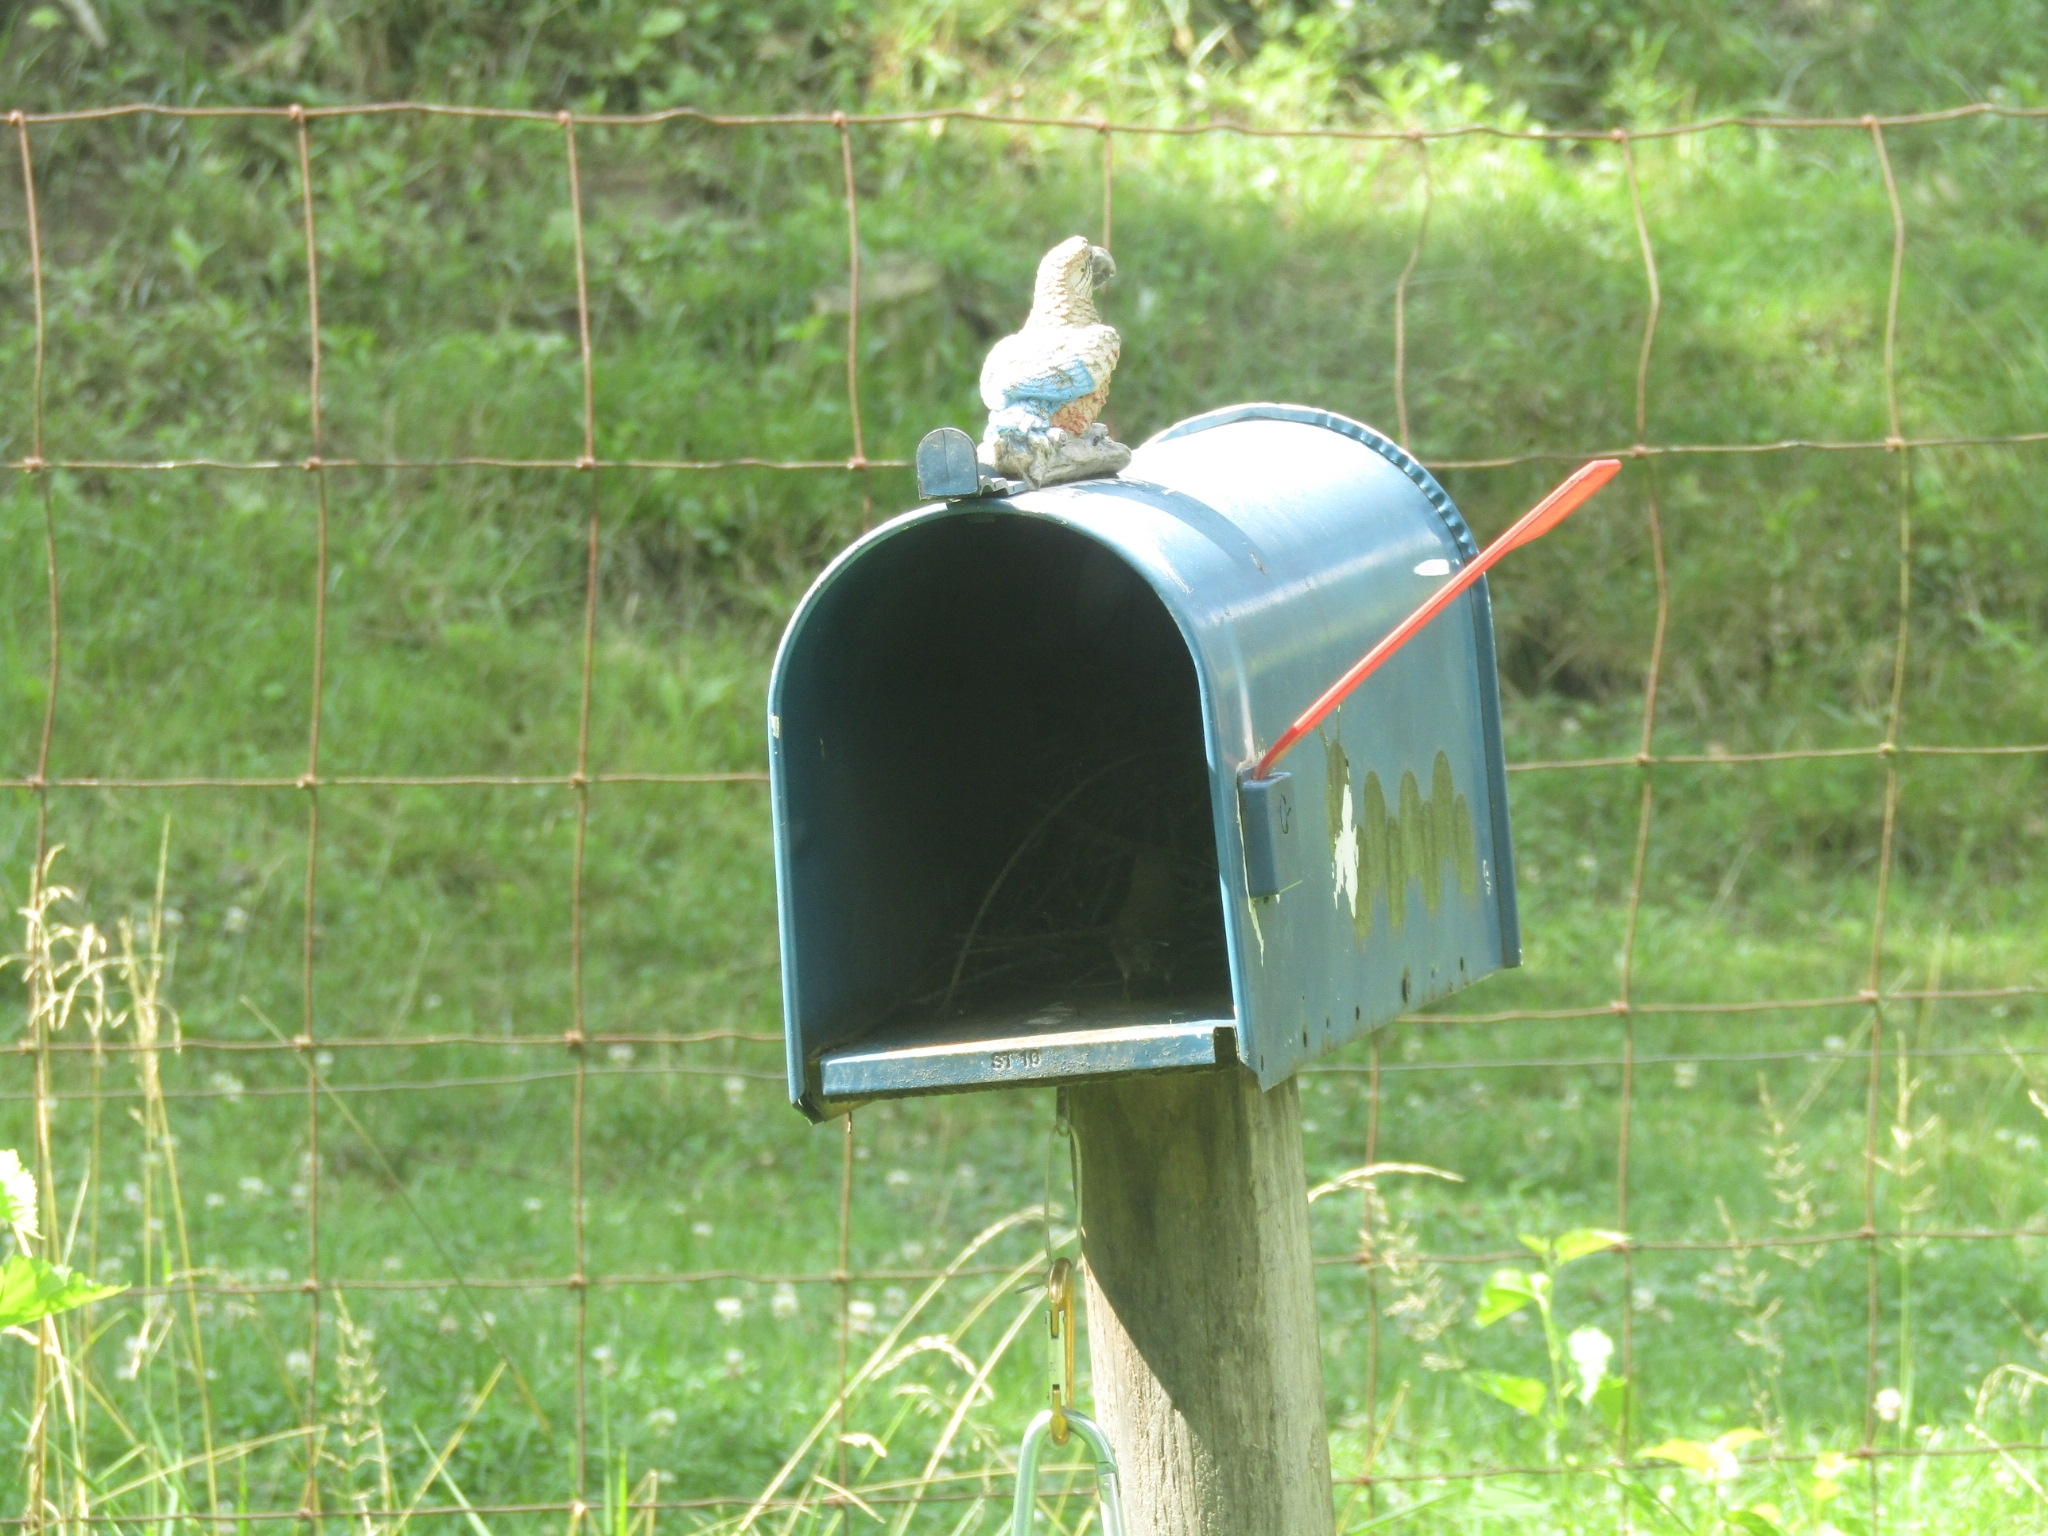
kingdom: Animalia
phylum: Chordata
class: Aves
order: Passeriformes
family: Troglodytidae
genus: Troglodytes
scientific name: Troglodytes aedon
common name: House wren
